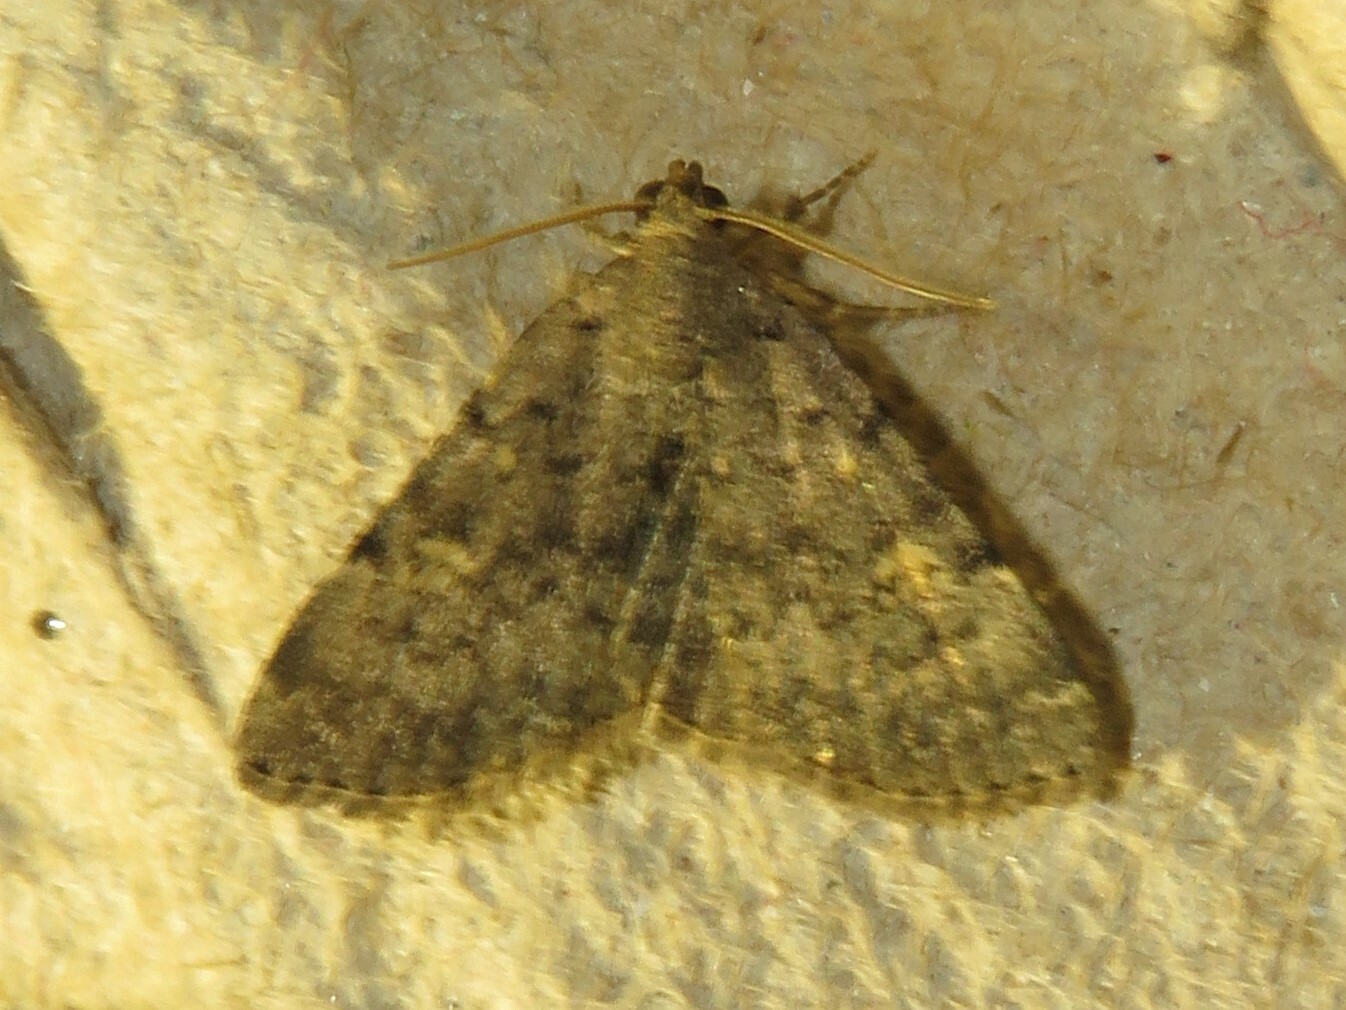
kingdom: Animalia
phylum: Arthropoda
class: Insecta
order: Lepidoptera
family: Erebidae
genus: Idia
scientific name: Idia aemula
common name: Common idia moth
